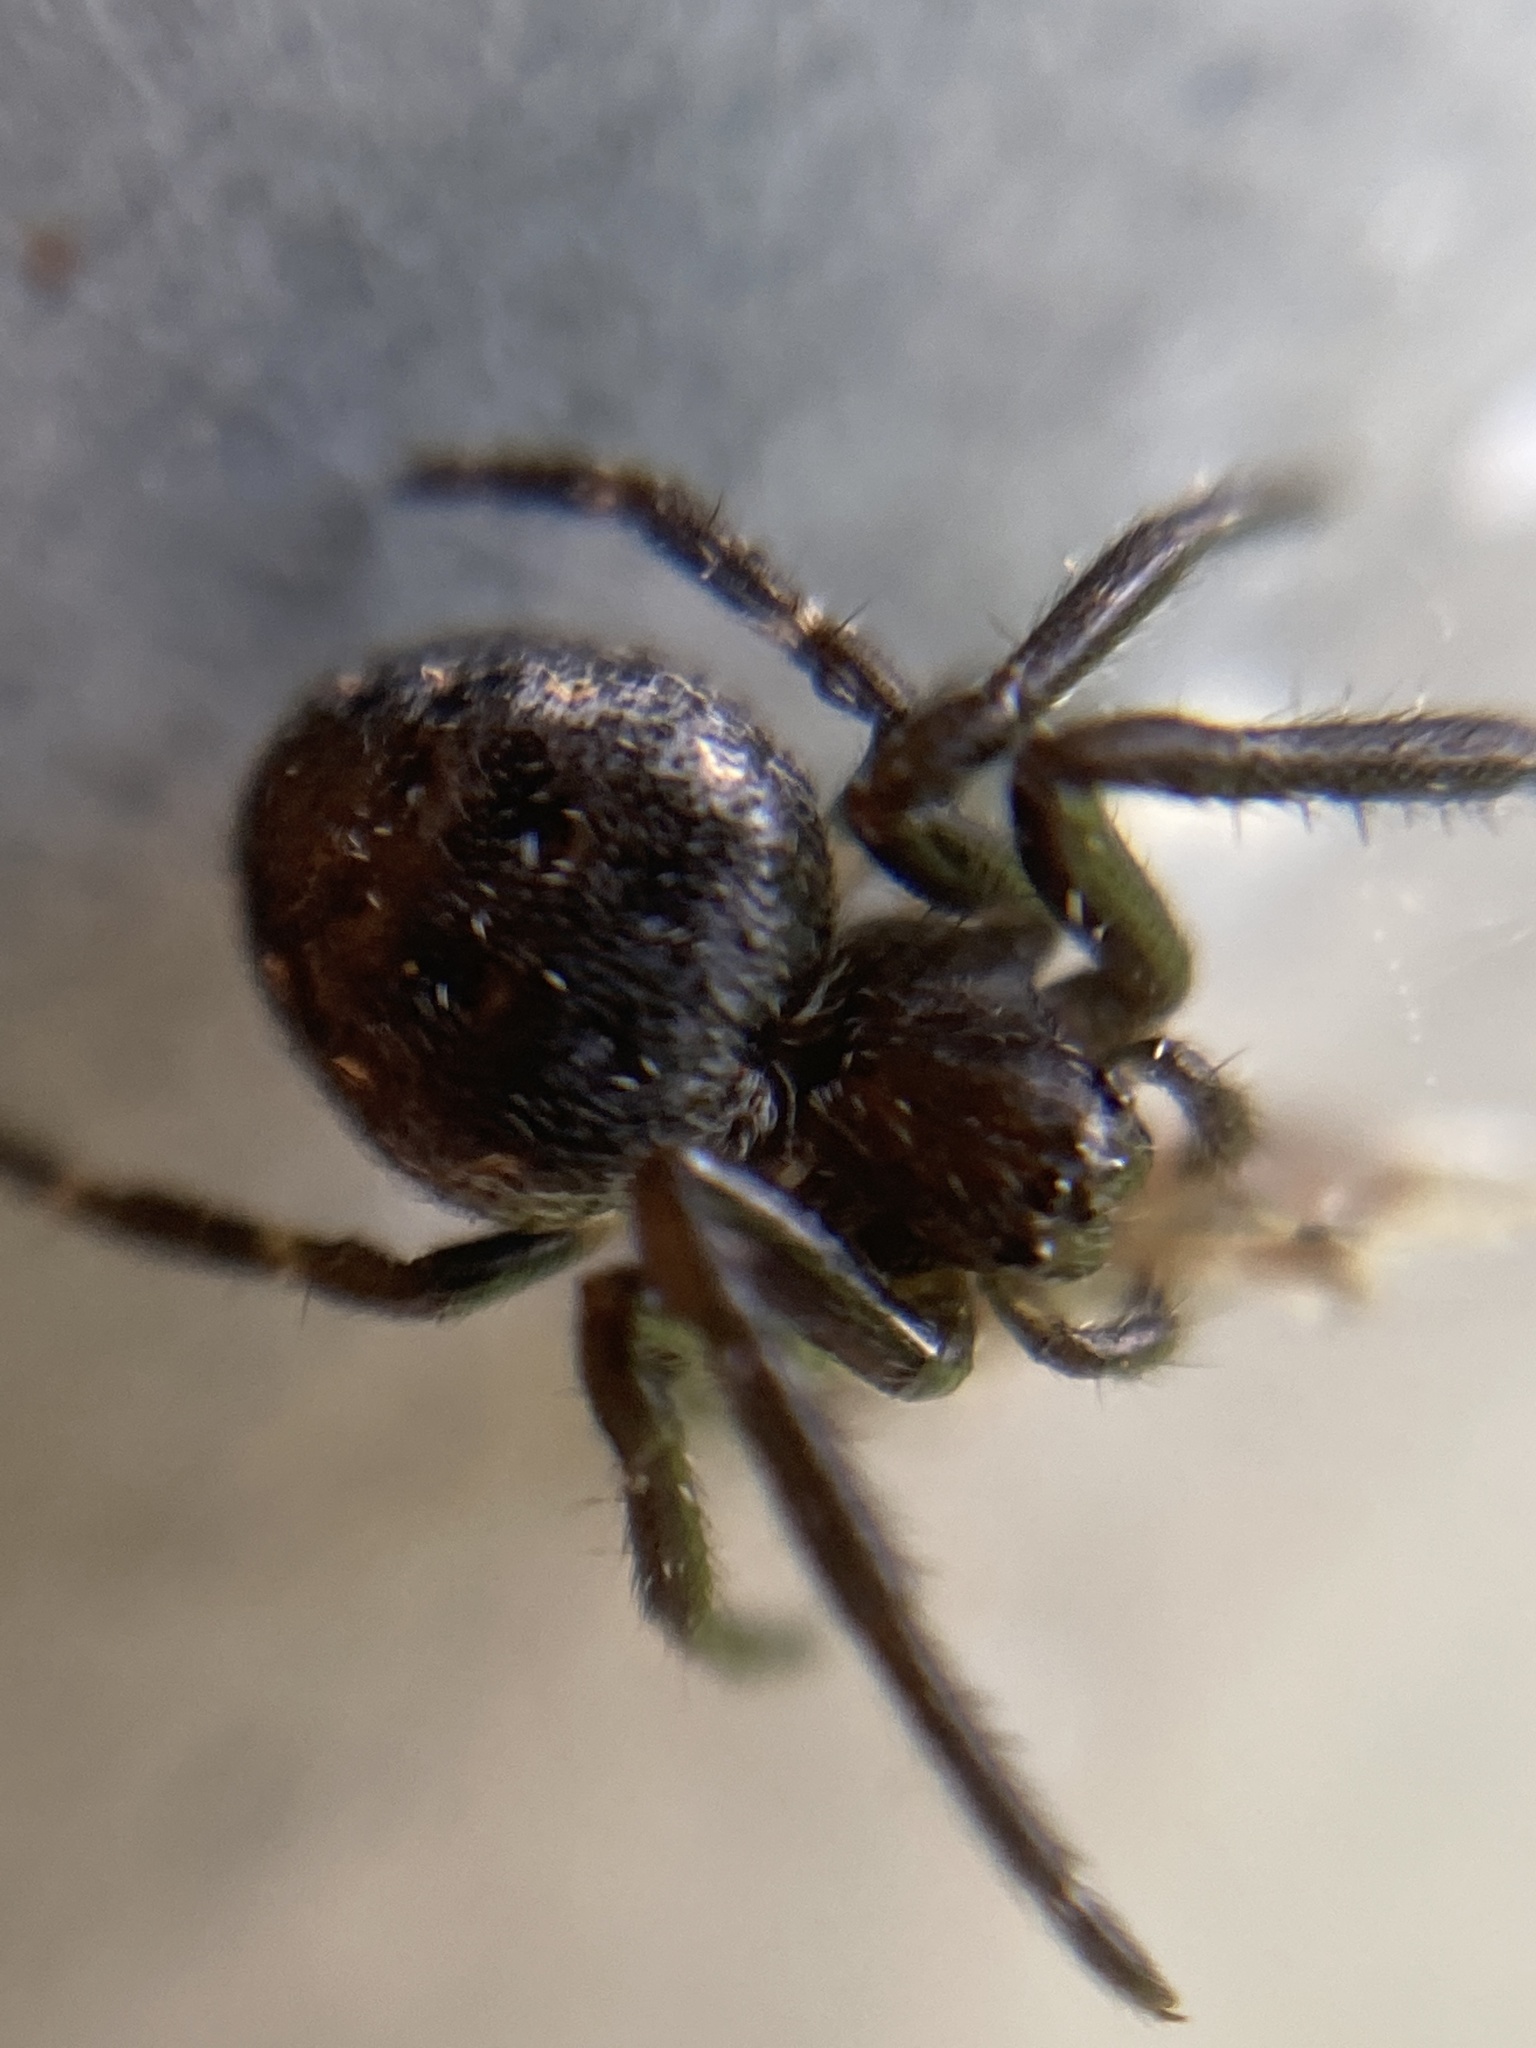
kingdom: Animalia
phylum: Arthropoda
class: Arachnida
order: Araneae
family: Araneidae
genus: Nuctenea
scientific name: Nuctenea umbratica
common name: Toad spider
